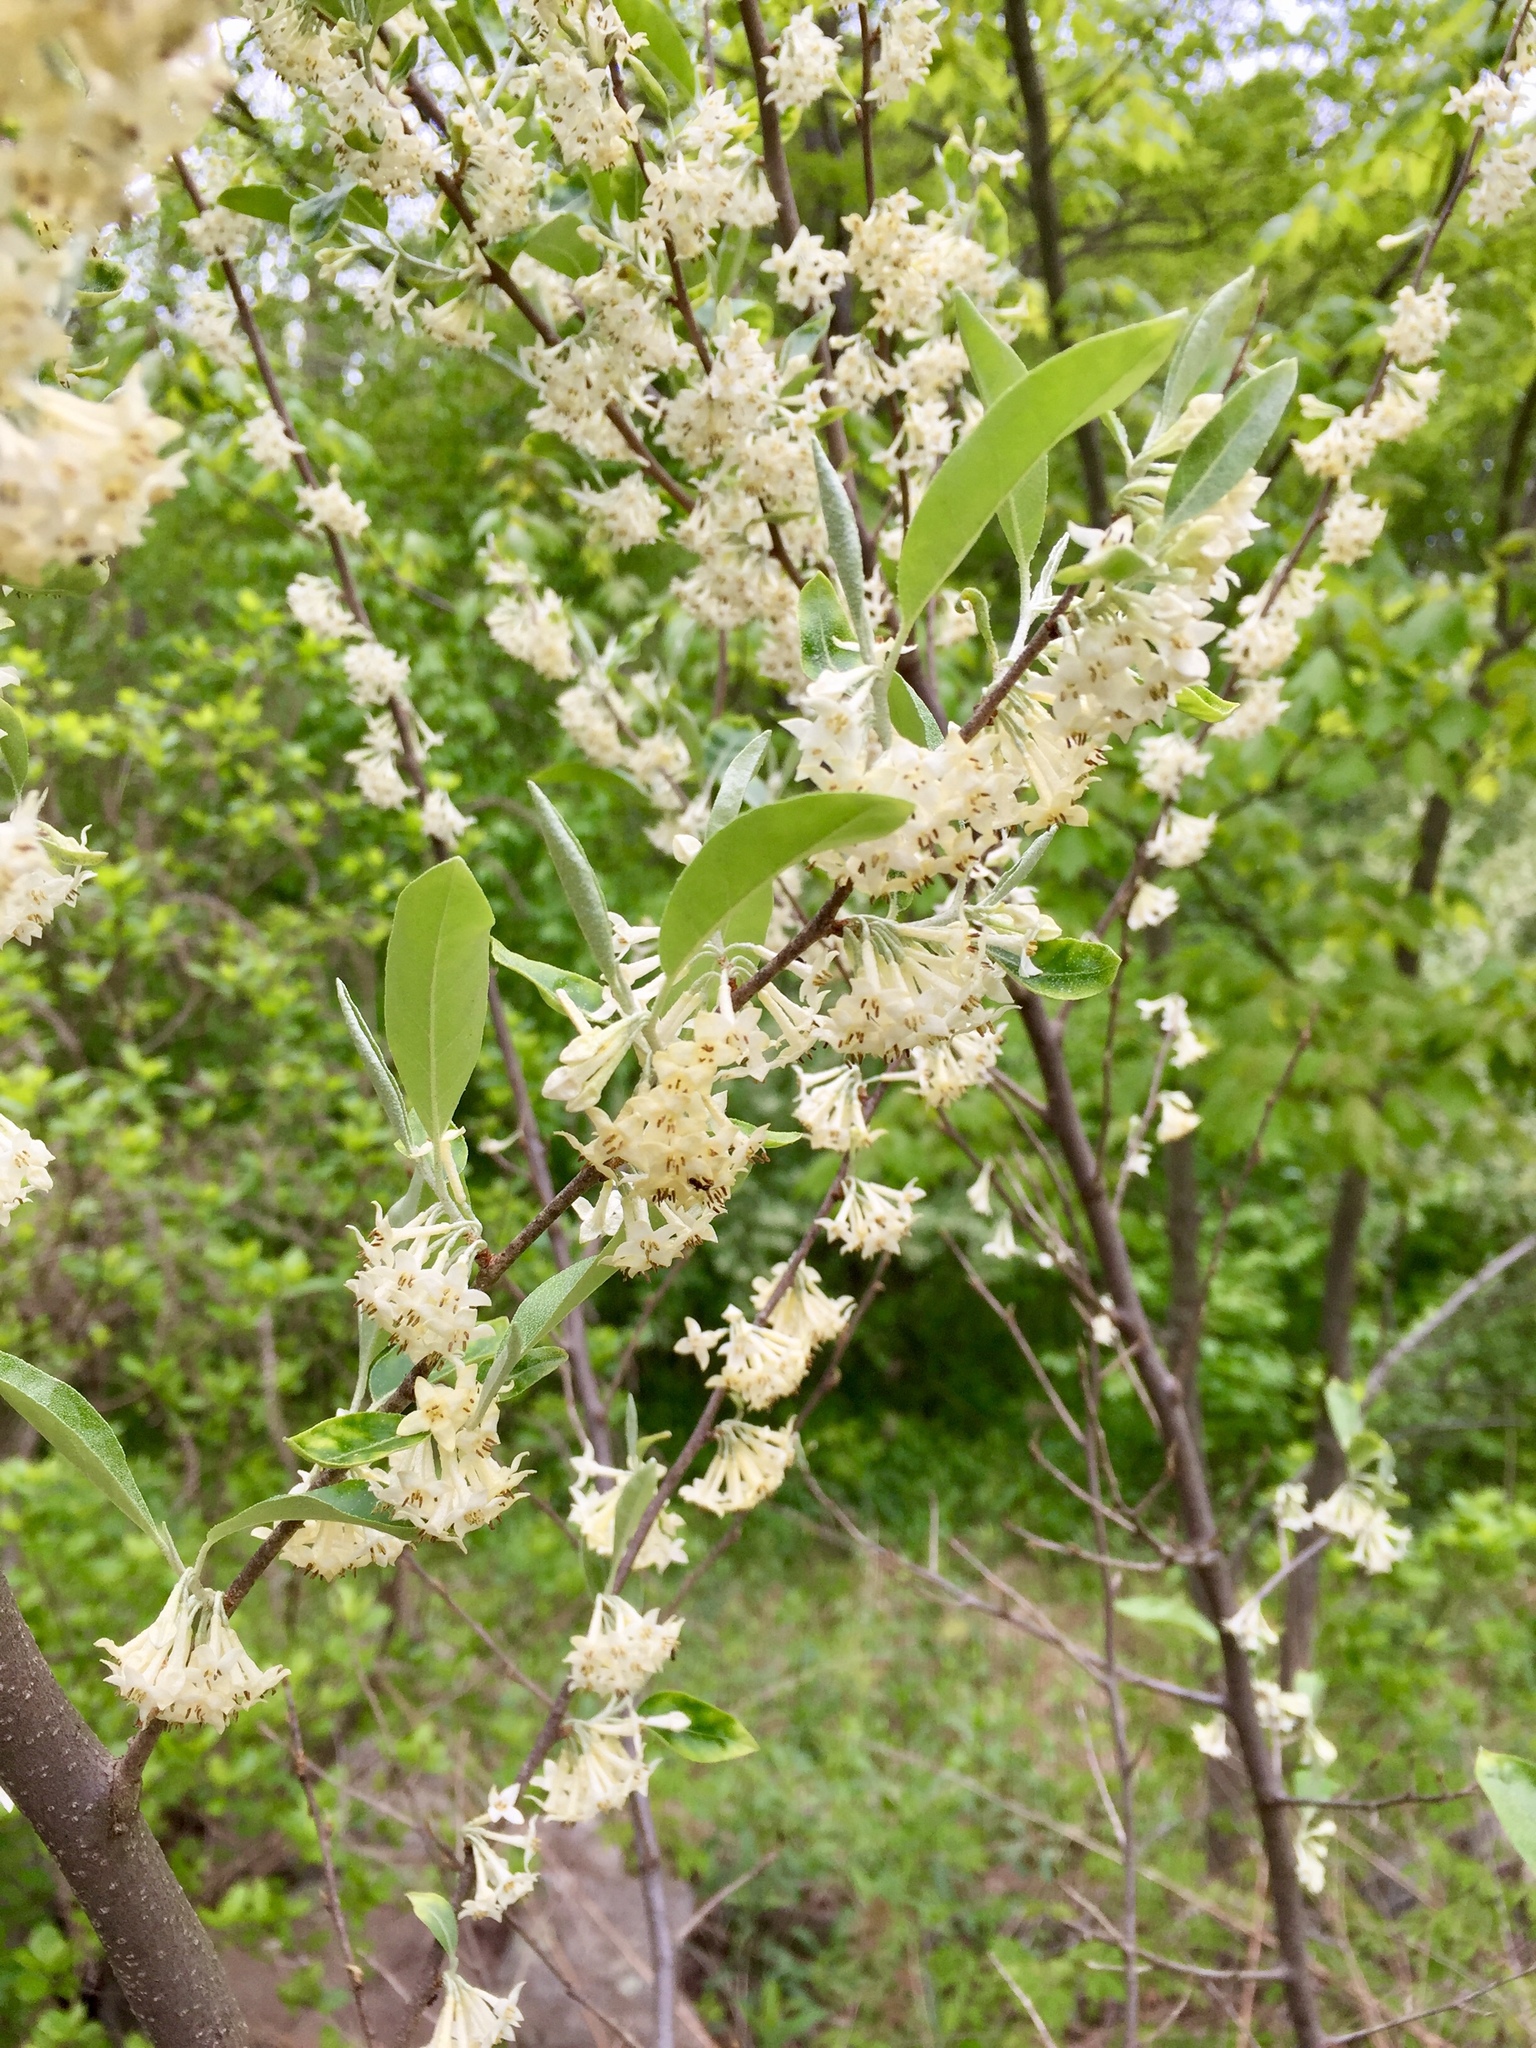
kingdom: Plantae
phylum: Tracheophyta
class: Magnoliopsida
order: Rosales
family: Elaeagnaceae
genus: Elaeagnus
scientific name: Elaeagnus umbellata
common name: Autumn olive
